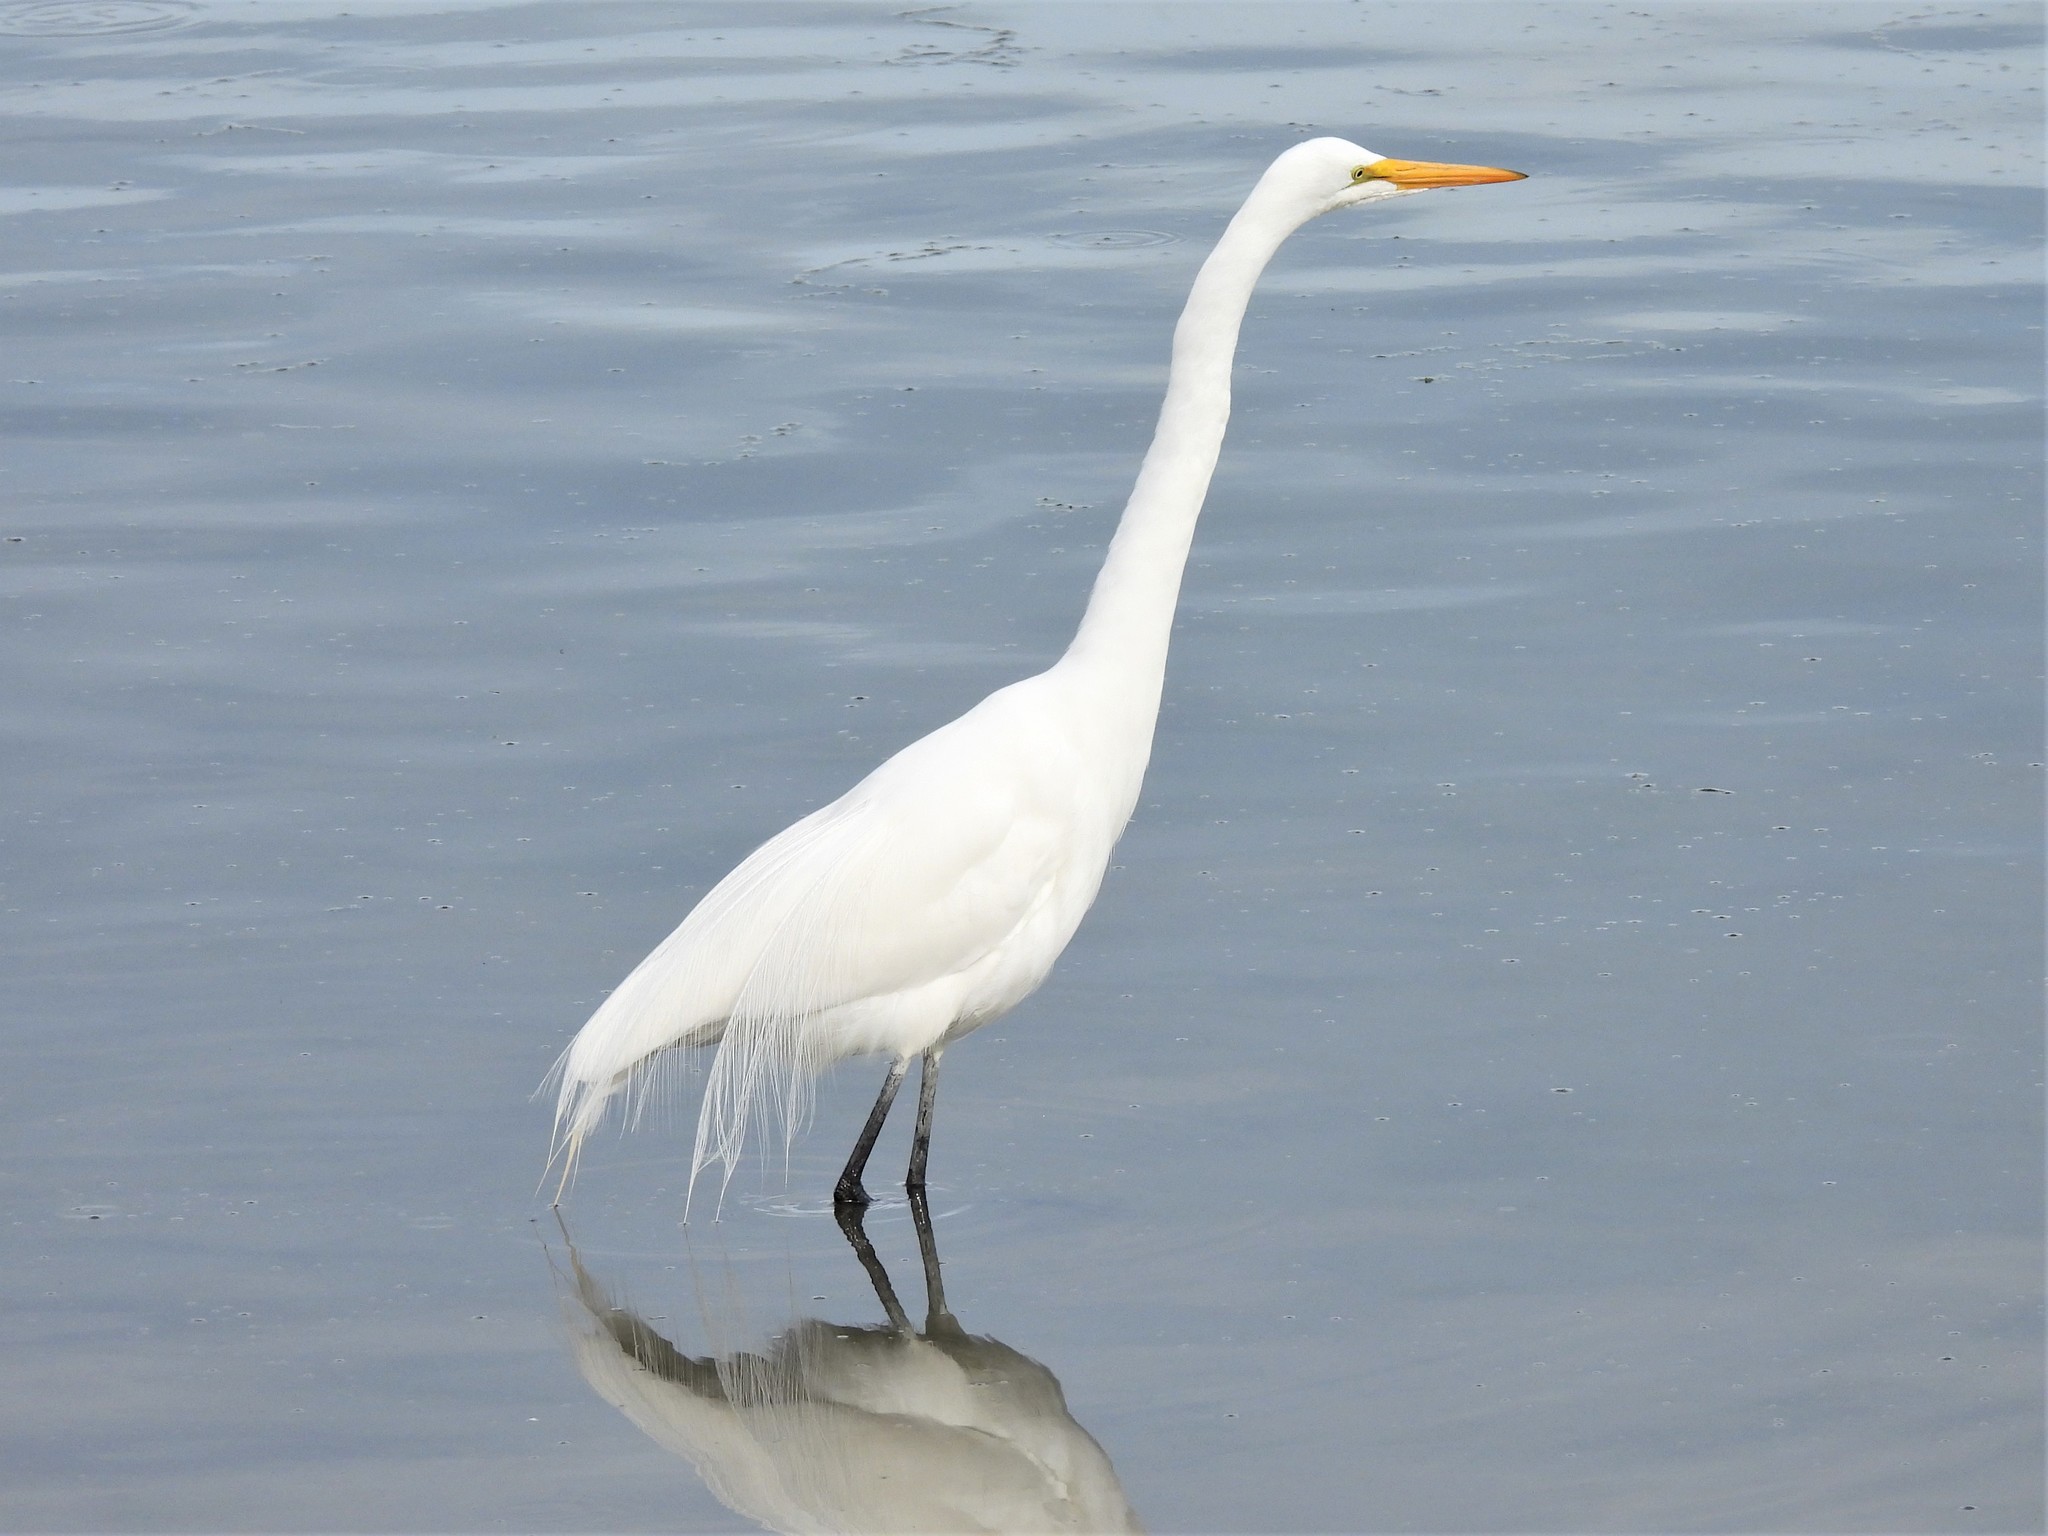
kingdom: Animalia
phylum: Chordata
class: Aves
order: Pelecaniformes
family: Ardeidae
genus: Ardea
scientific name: Ardea alba
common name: Great egret
